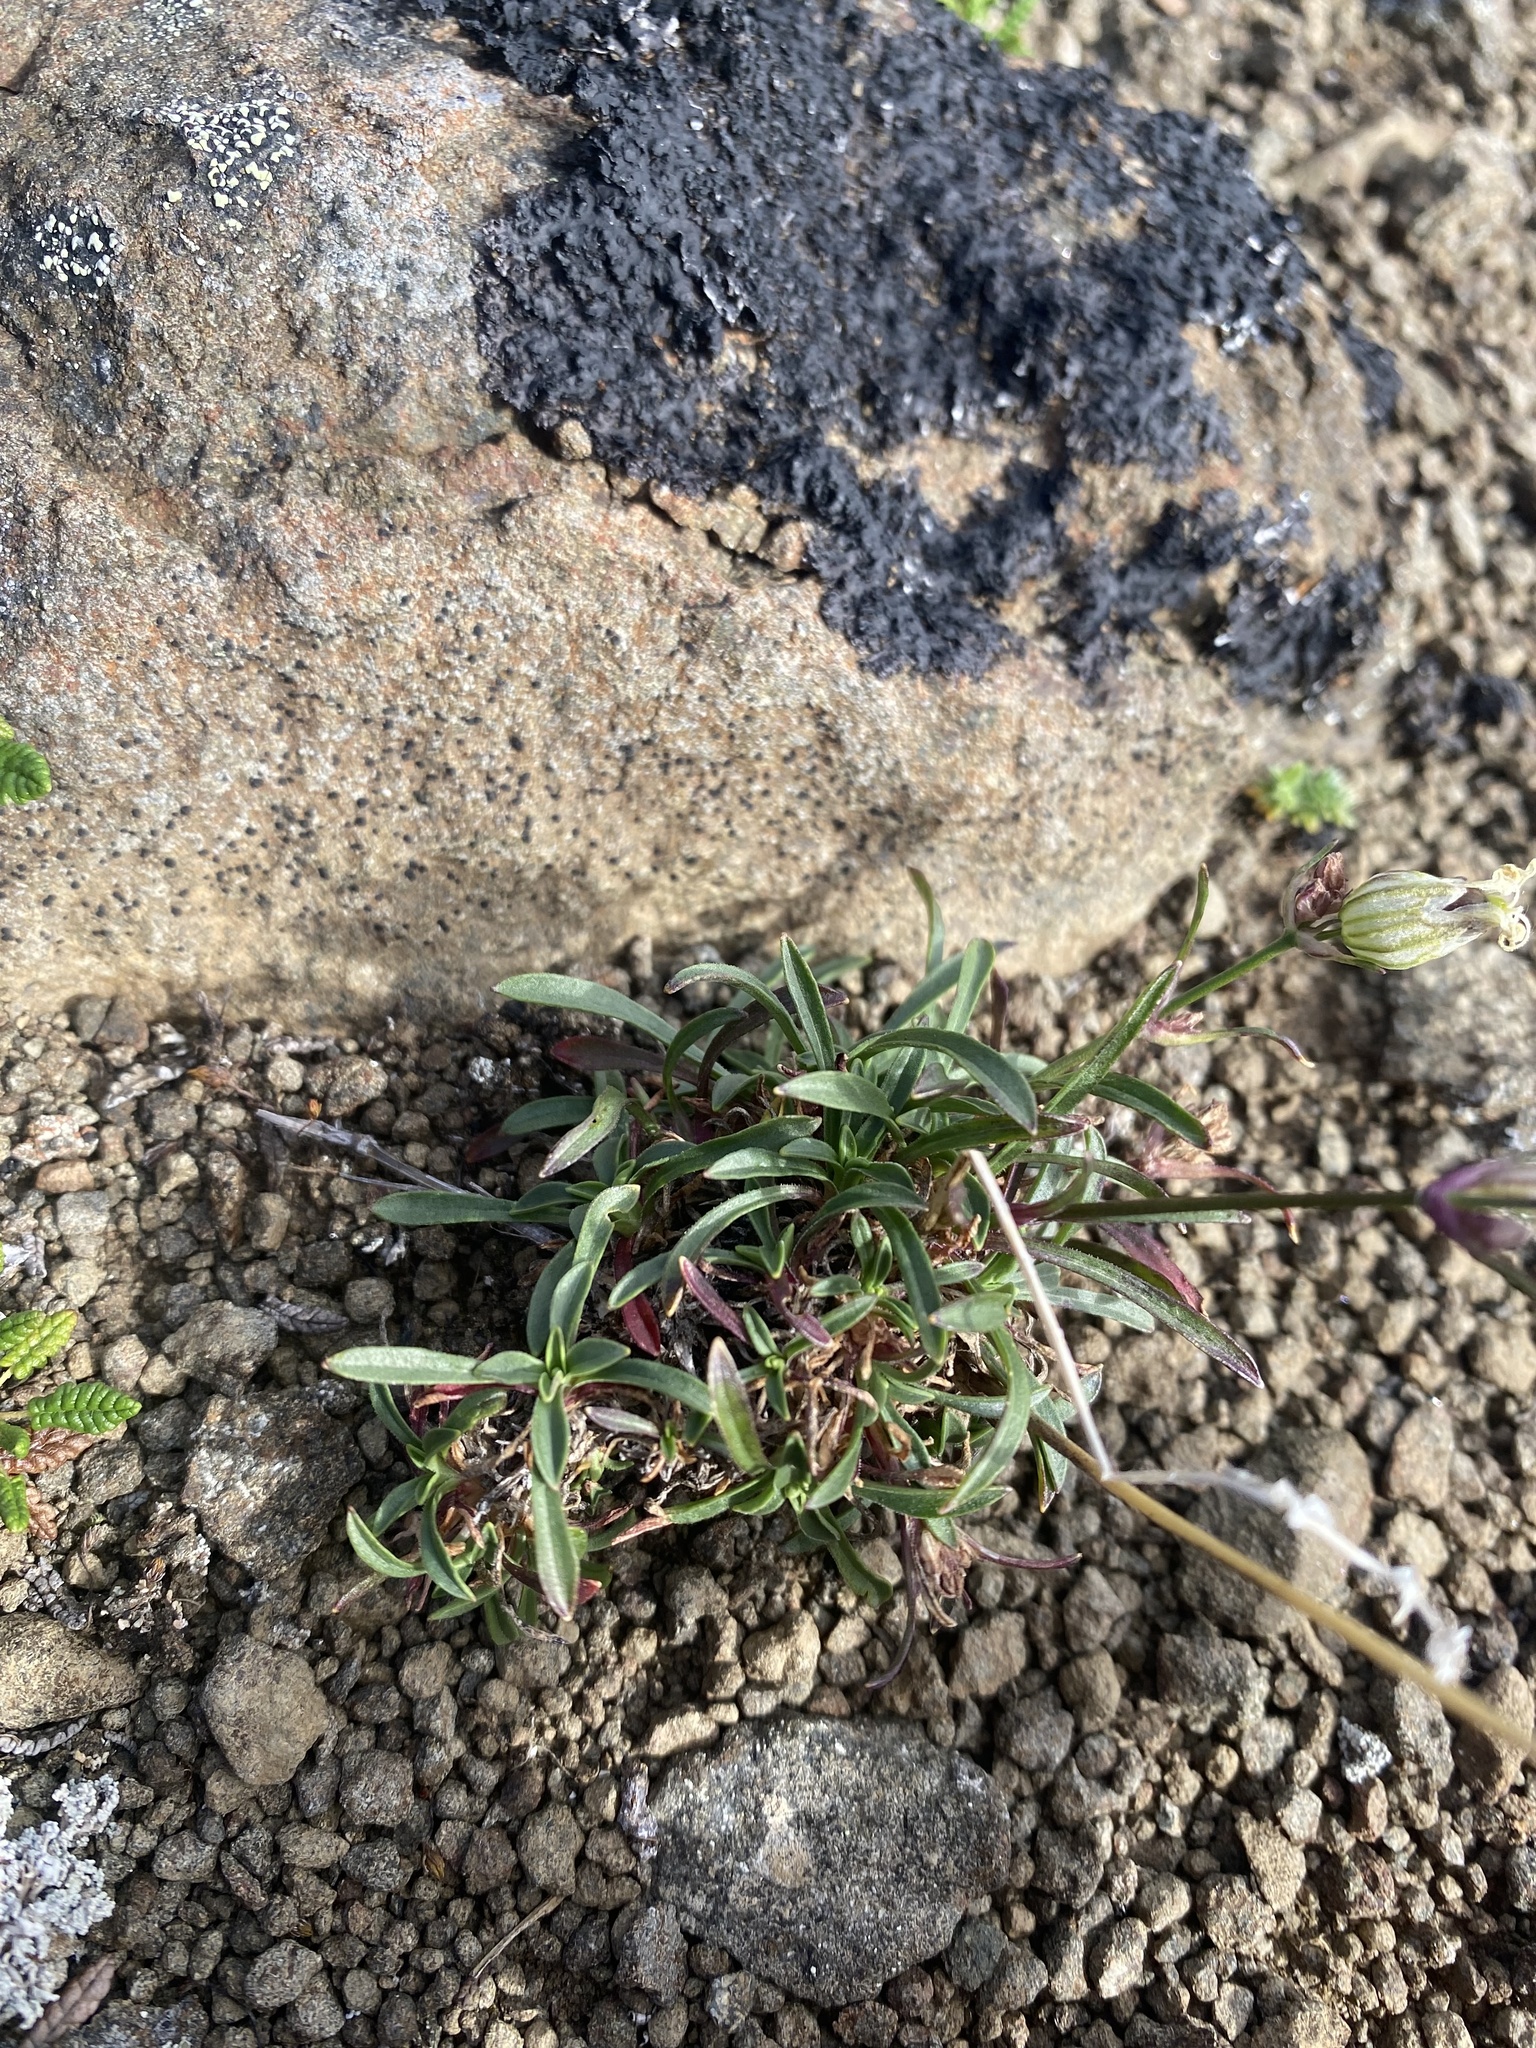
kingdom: Plantae
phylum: Tracheophyta
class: Magnoliopsida
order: Caryophyllales
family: Caryophyllaceae
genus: Silene
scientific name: Silene chamarensis
